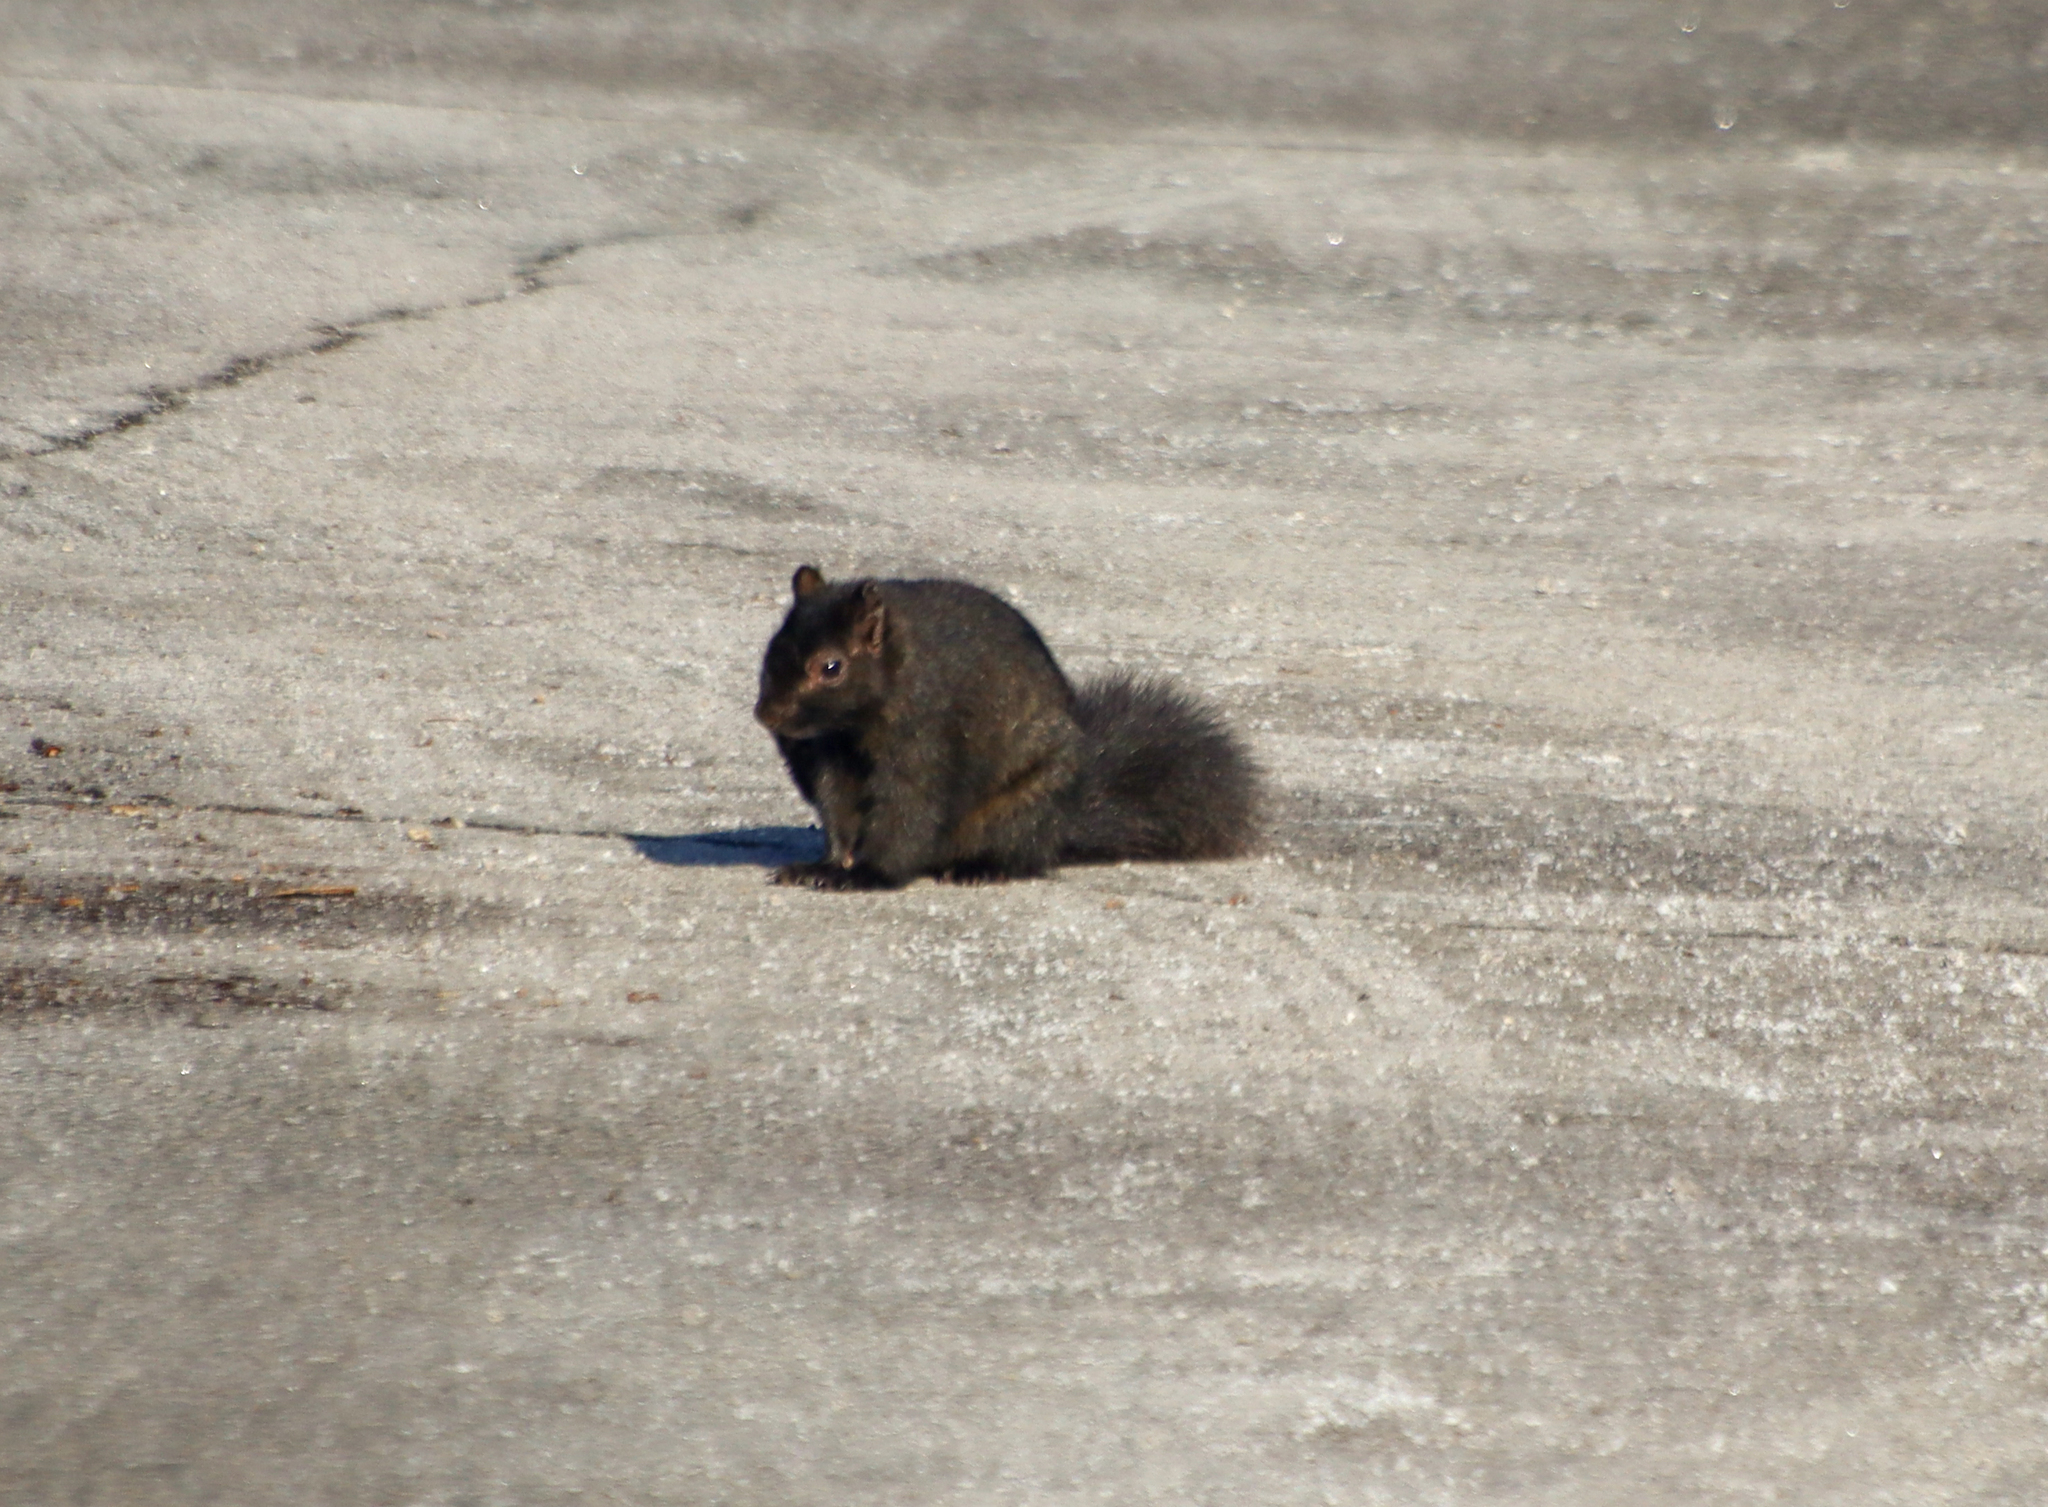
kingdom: Animalia
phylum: Chordata
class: Mammalia
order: Rodentia
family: Sciuridae
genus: Sciurus
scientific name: Sciurus carolinensis
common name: Eastern gray squirrel
